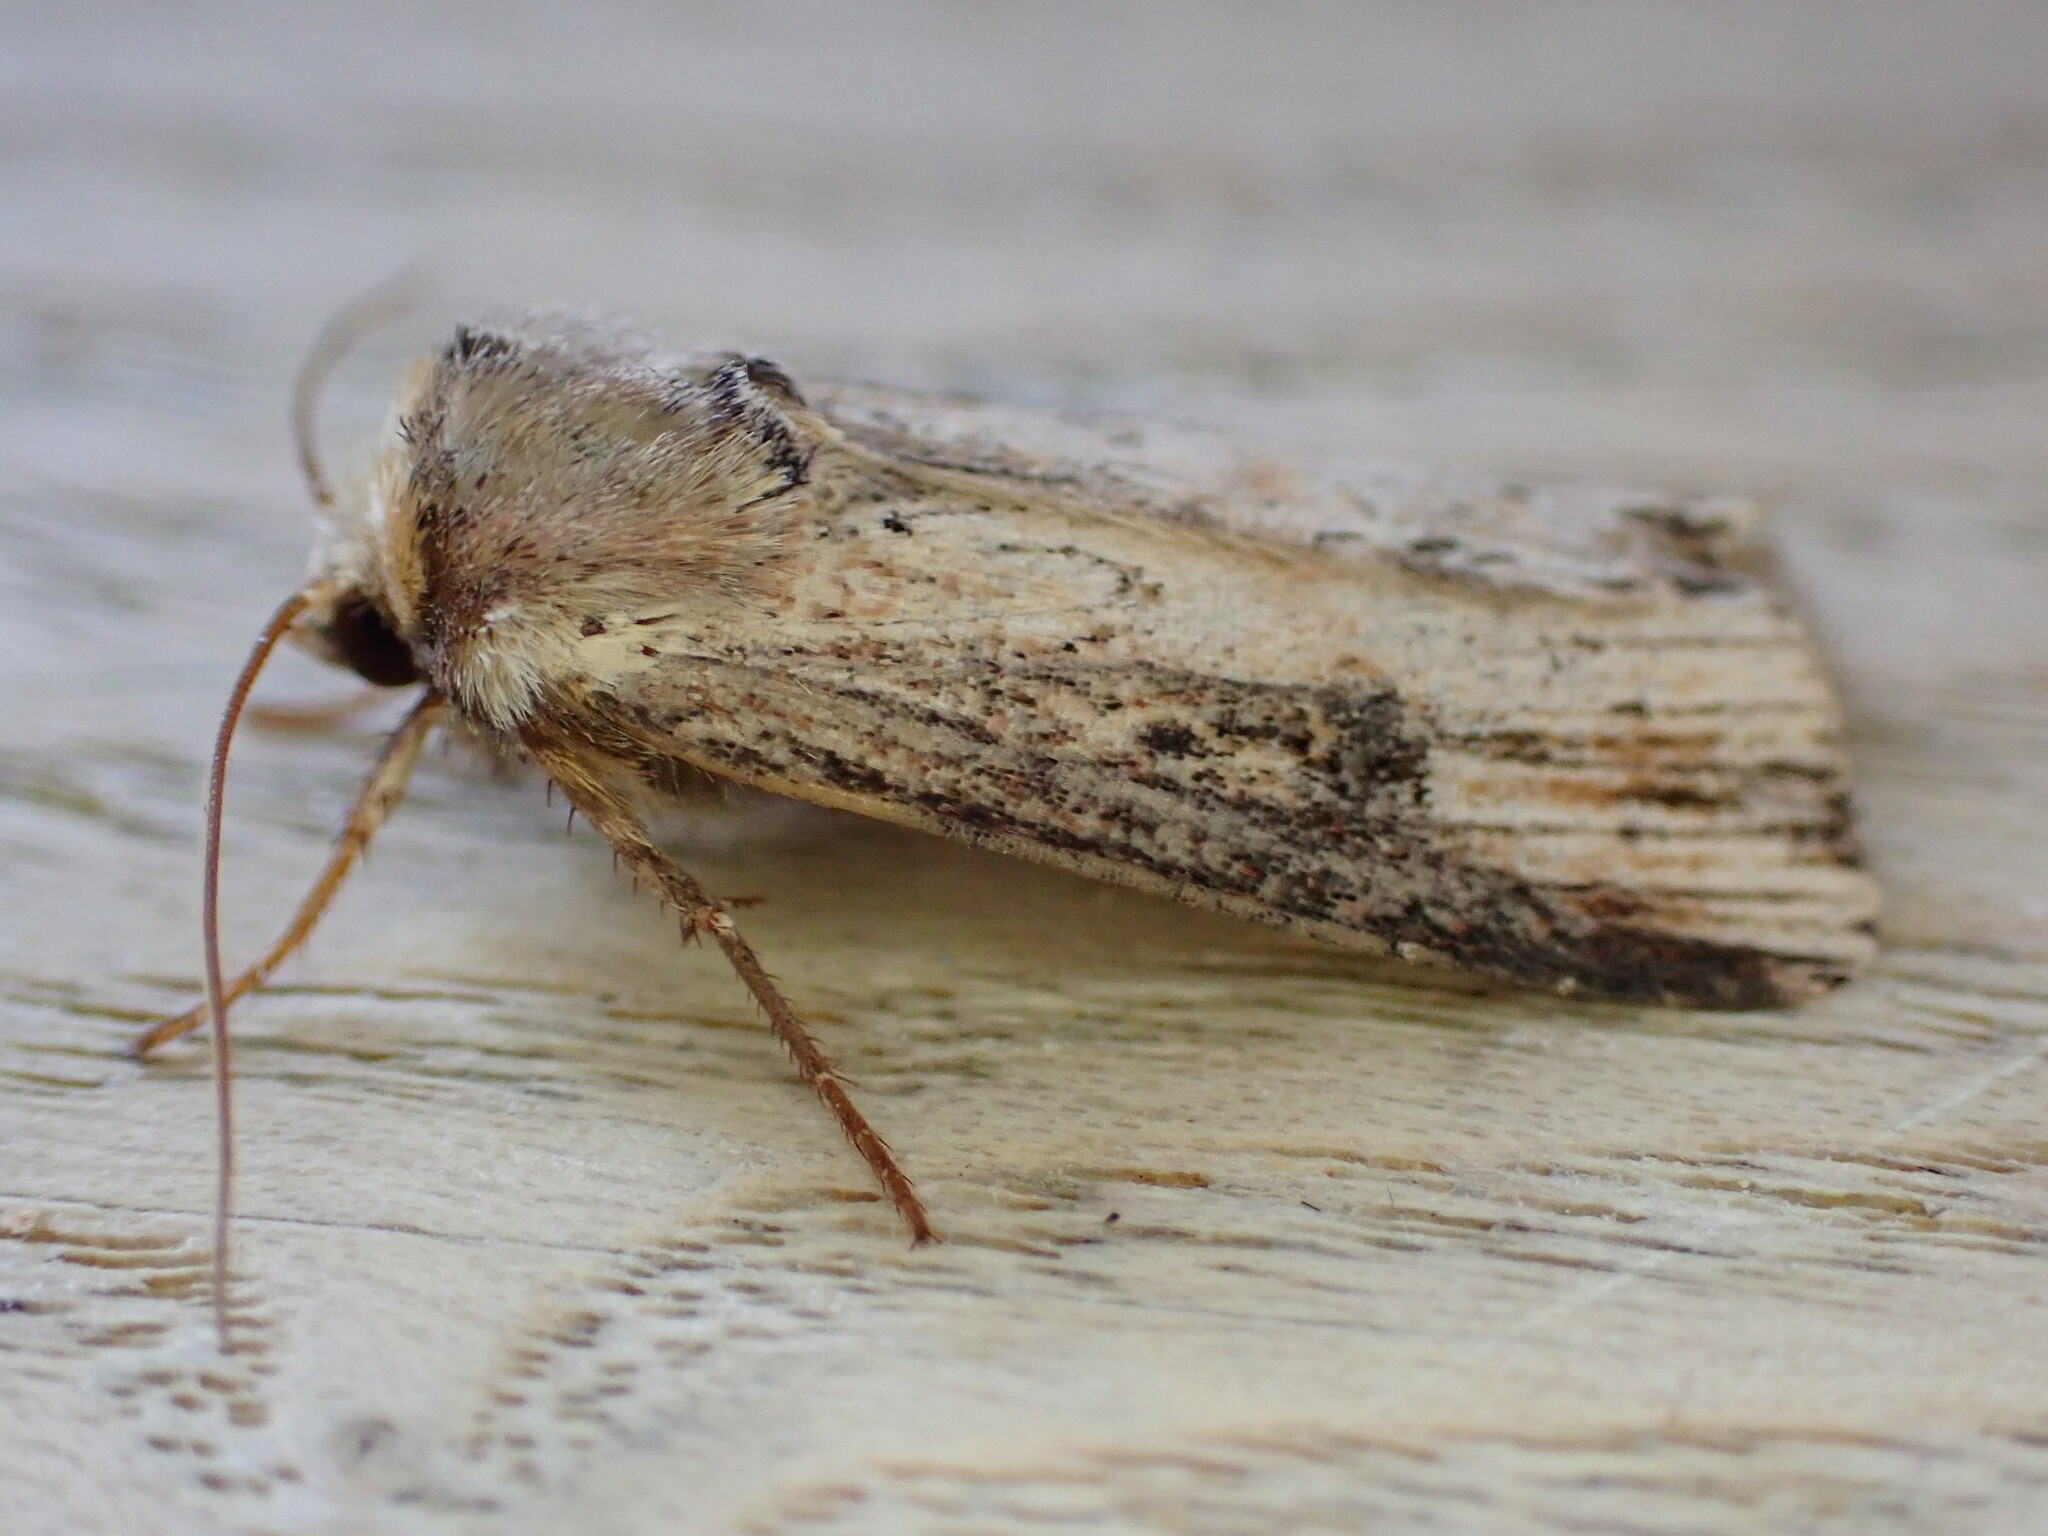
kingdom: Animalia
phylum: Arthropoda
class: Insecta
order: Lepidoptera
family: Noctuidae
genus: Axylia
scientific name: Axylia putris
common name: Flame
